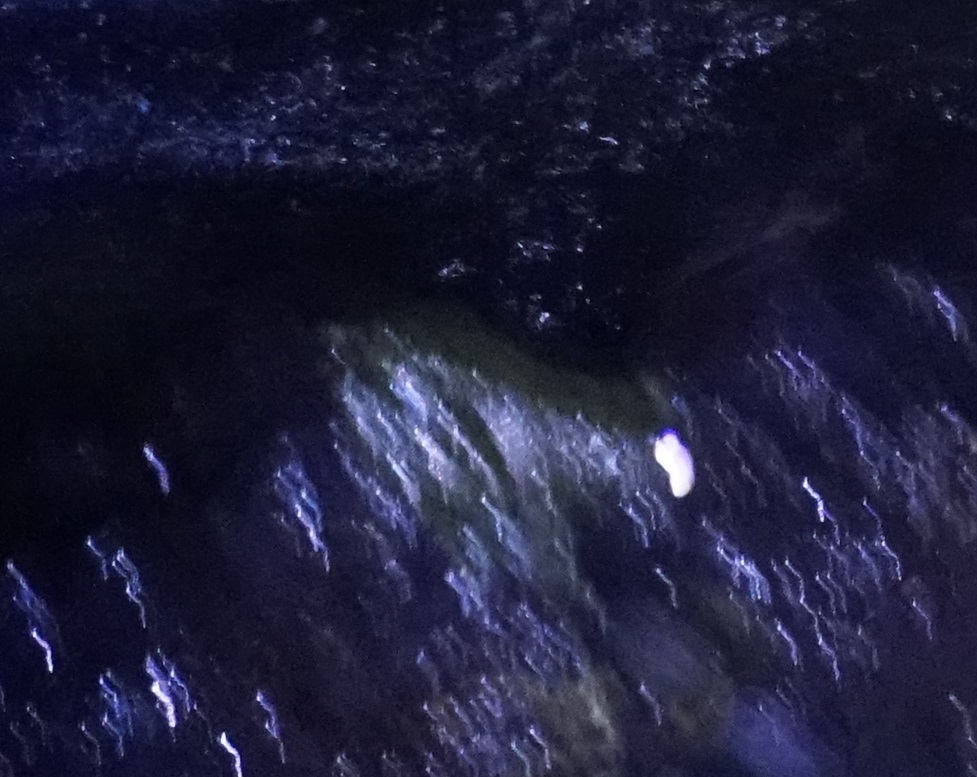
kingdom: Animalia
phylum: Chordata
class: Amphibia
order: Anura
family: Pelodryadidae
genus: Ranoidea
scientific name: Ranoidea nannotis
